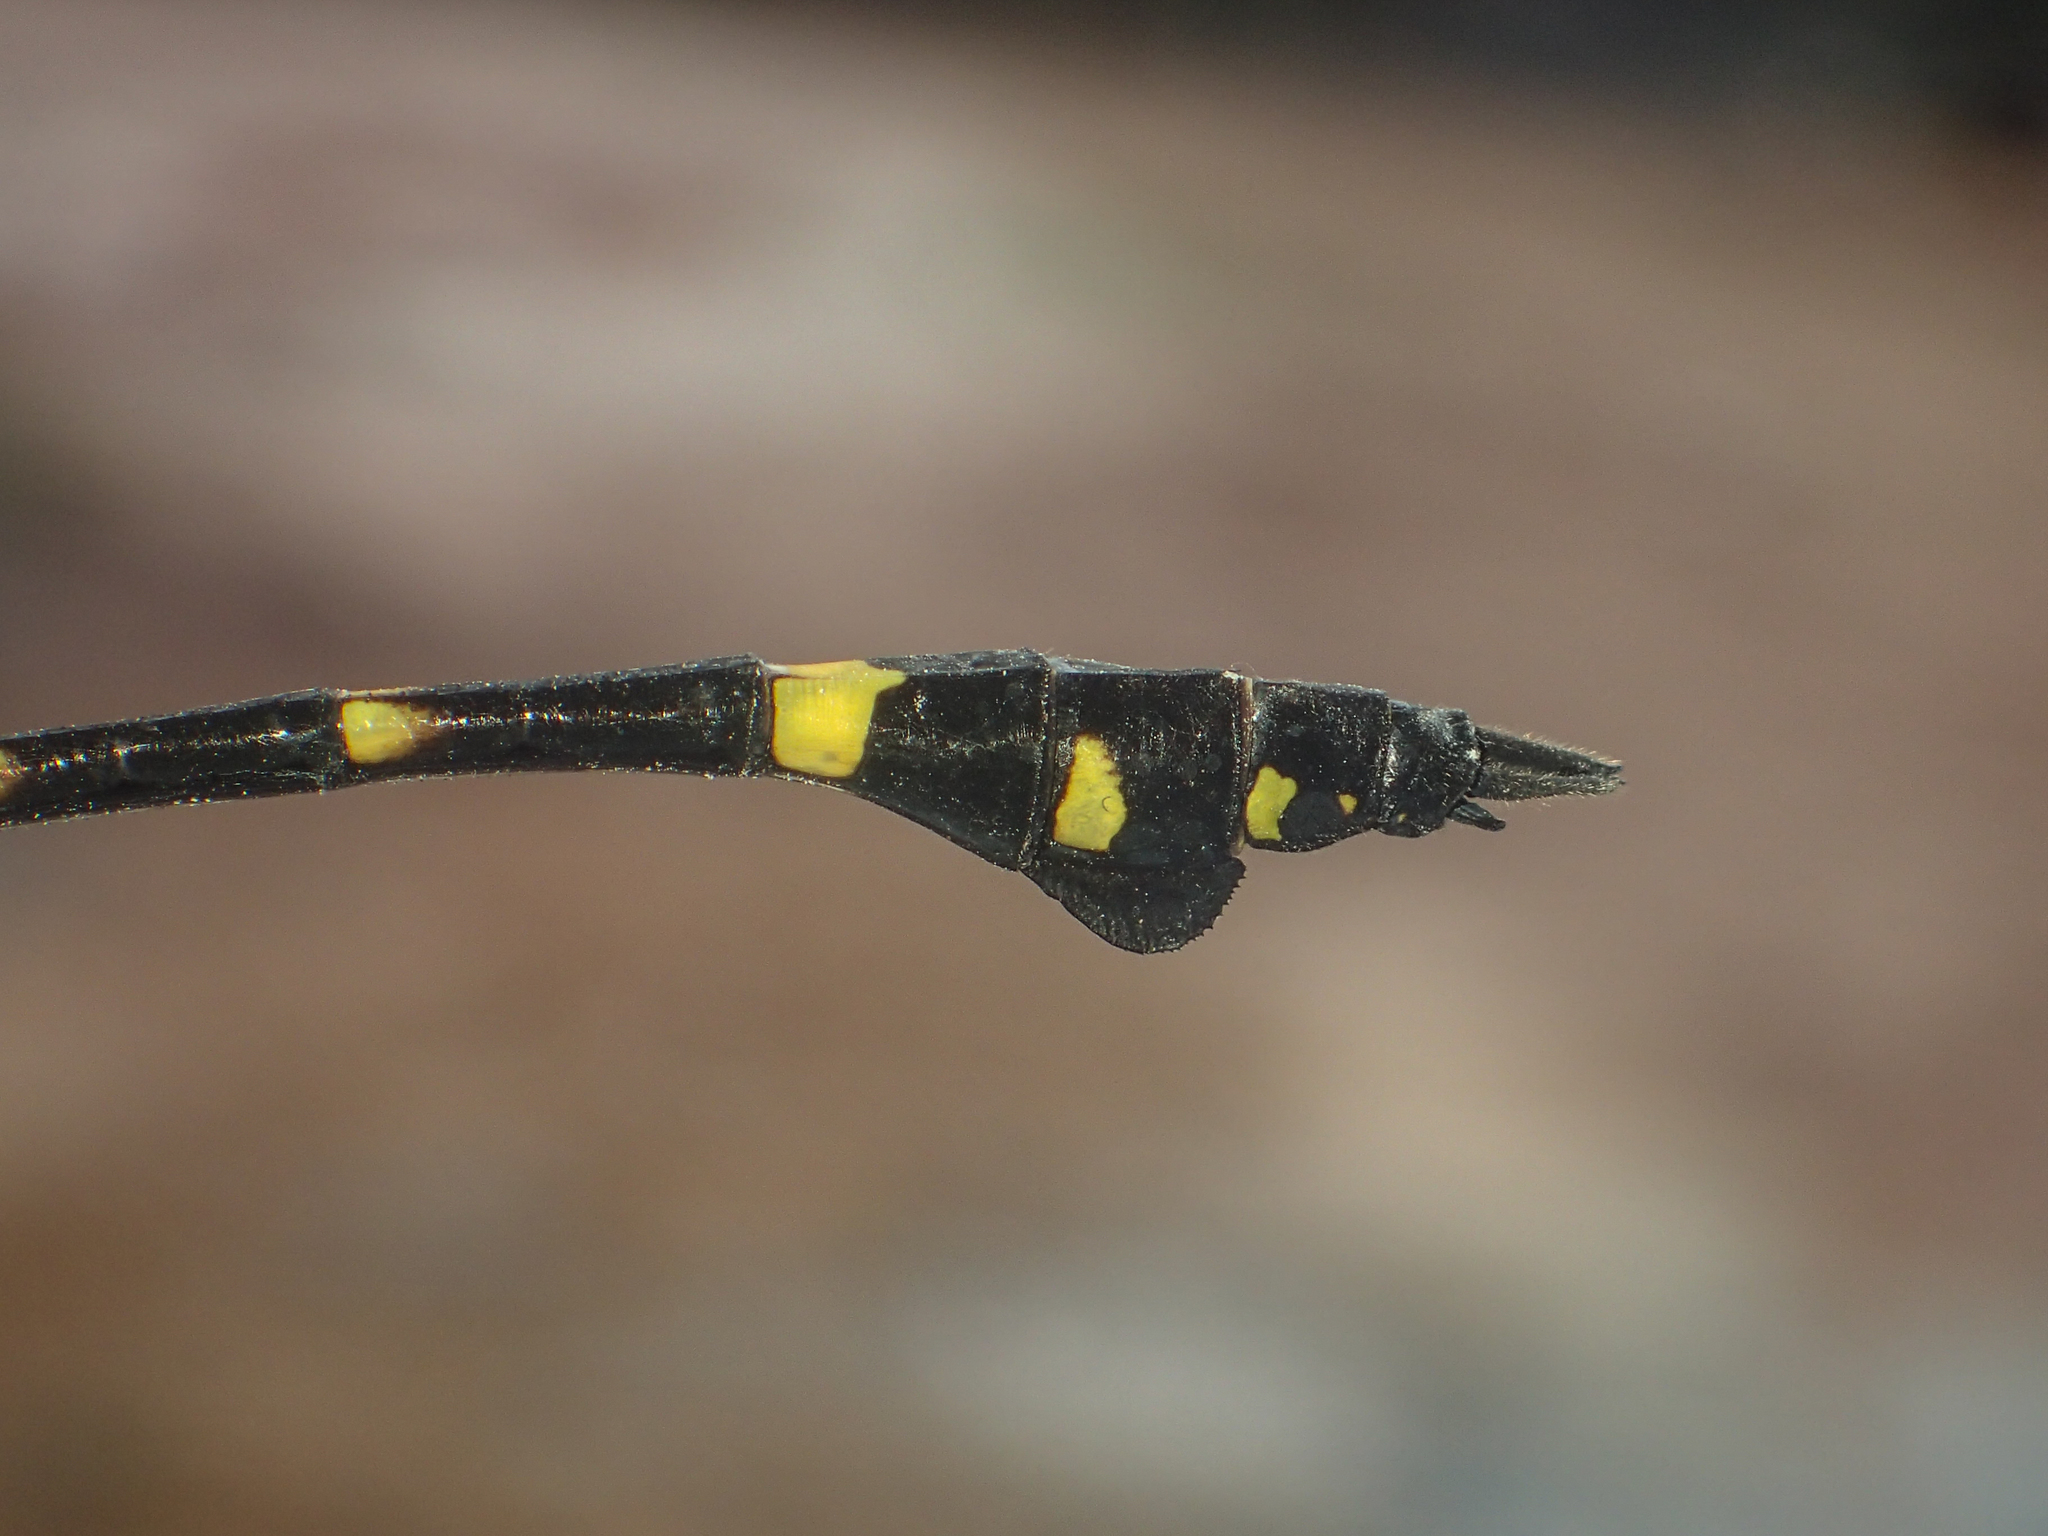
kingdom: Animalia
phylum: Arthropoda
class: Insecta
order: Odonata
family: Gomphidae
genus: Ictinogomphus
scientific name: Ictinogomphus decoratus
